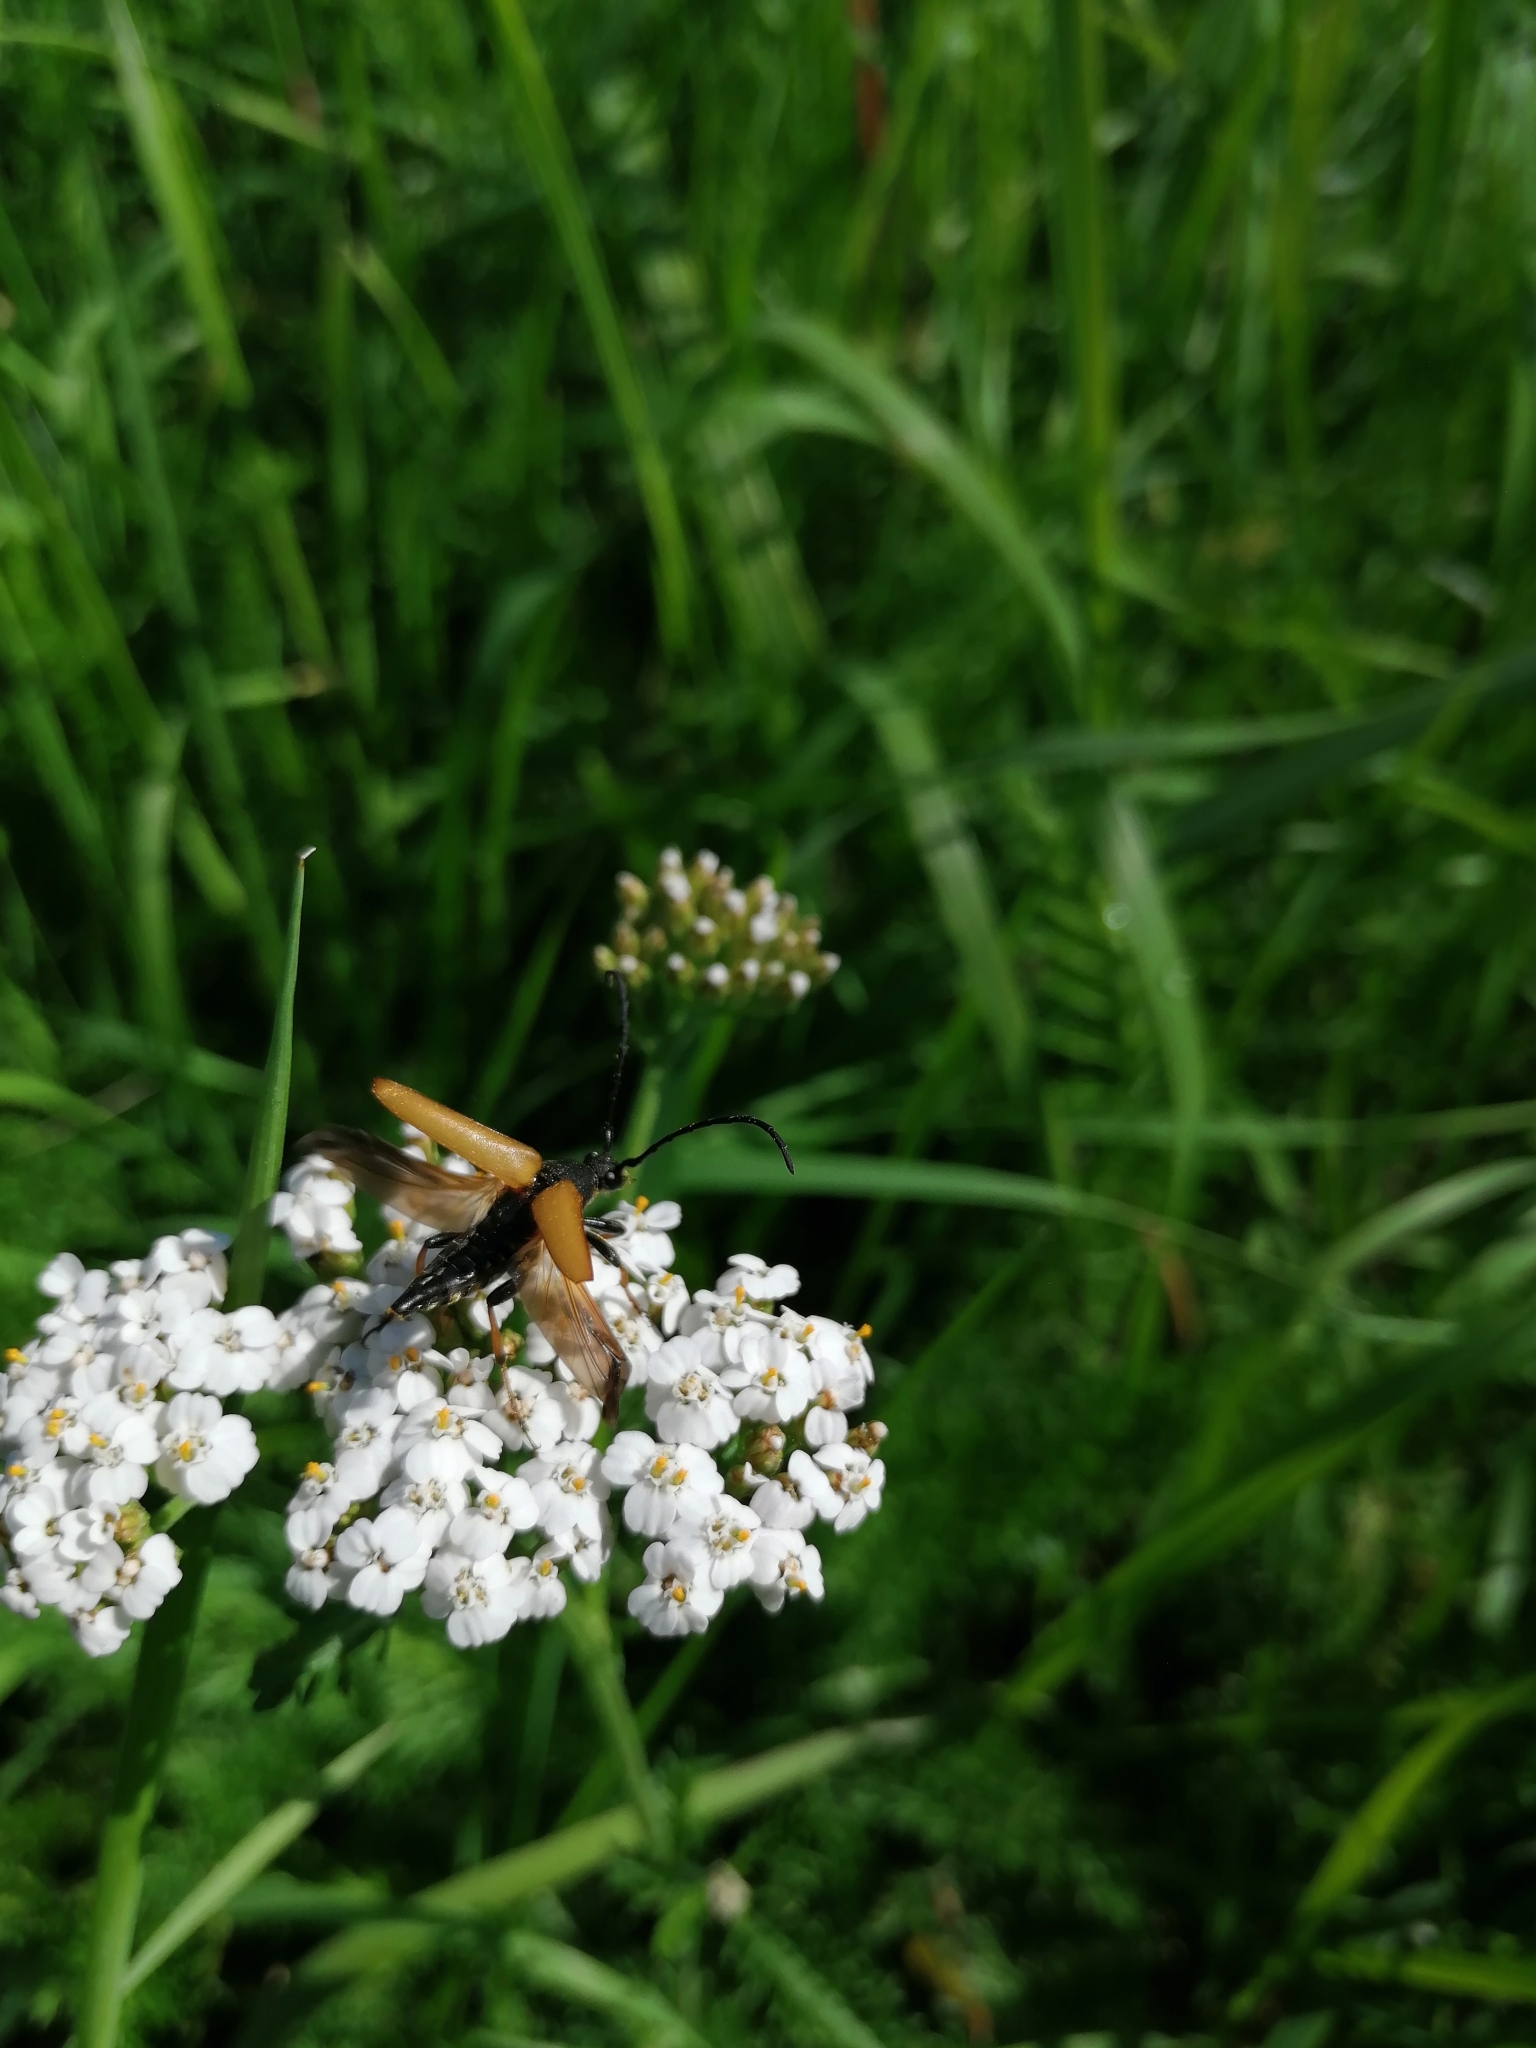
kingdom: Animalia
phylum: Arthropoda
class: Insecta
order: Coleoptera
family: Cerambycidae
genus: Stictoleptura
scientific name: Stictoleptura rubra
